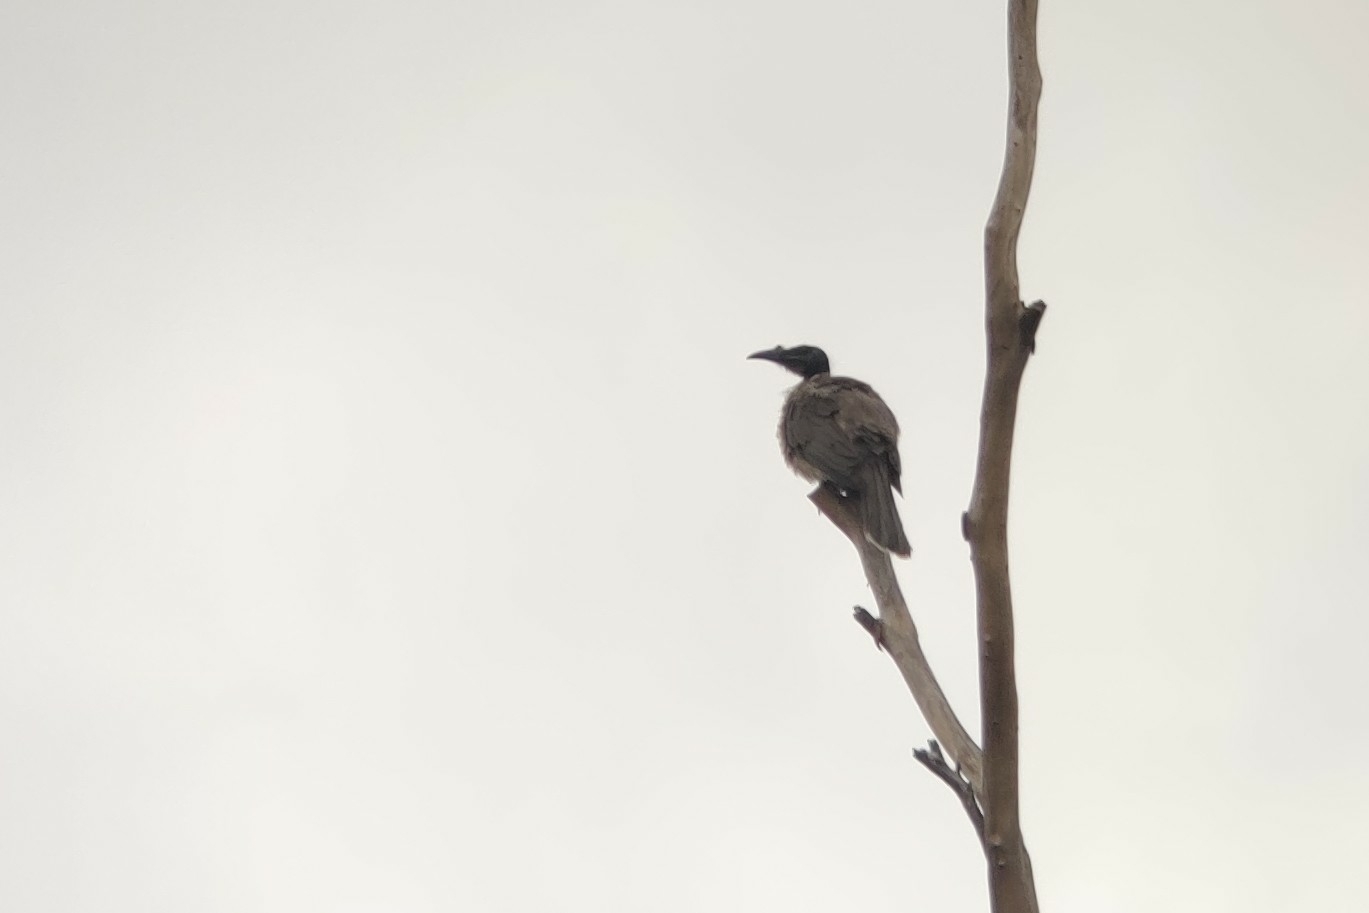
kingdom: Animalia
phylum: Chordata
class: Aves
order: Passeriformes
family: Meliphagidae
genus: Philemon
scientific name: Philemon corniculatus
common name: Noisy friarbird
